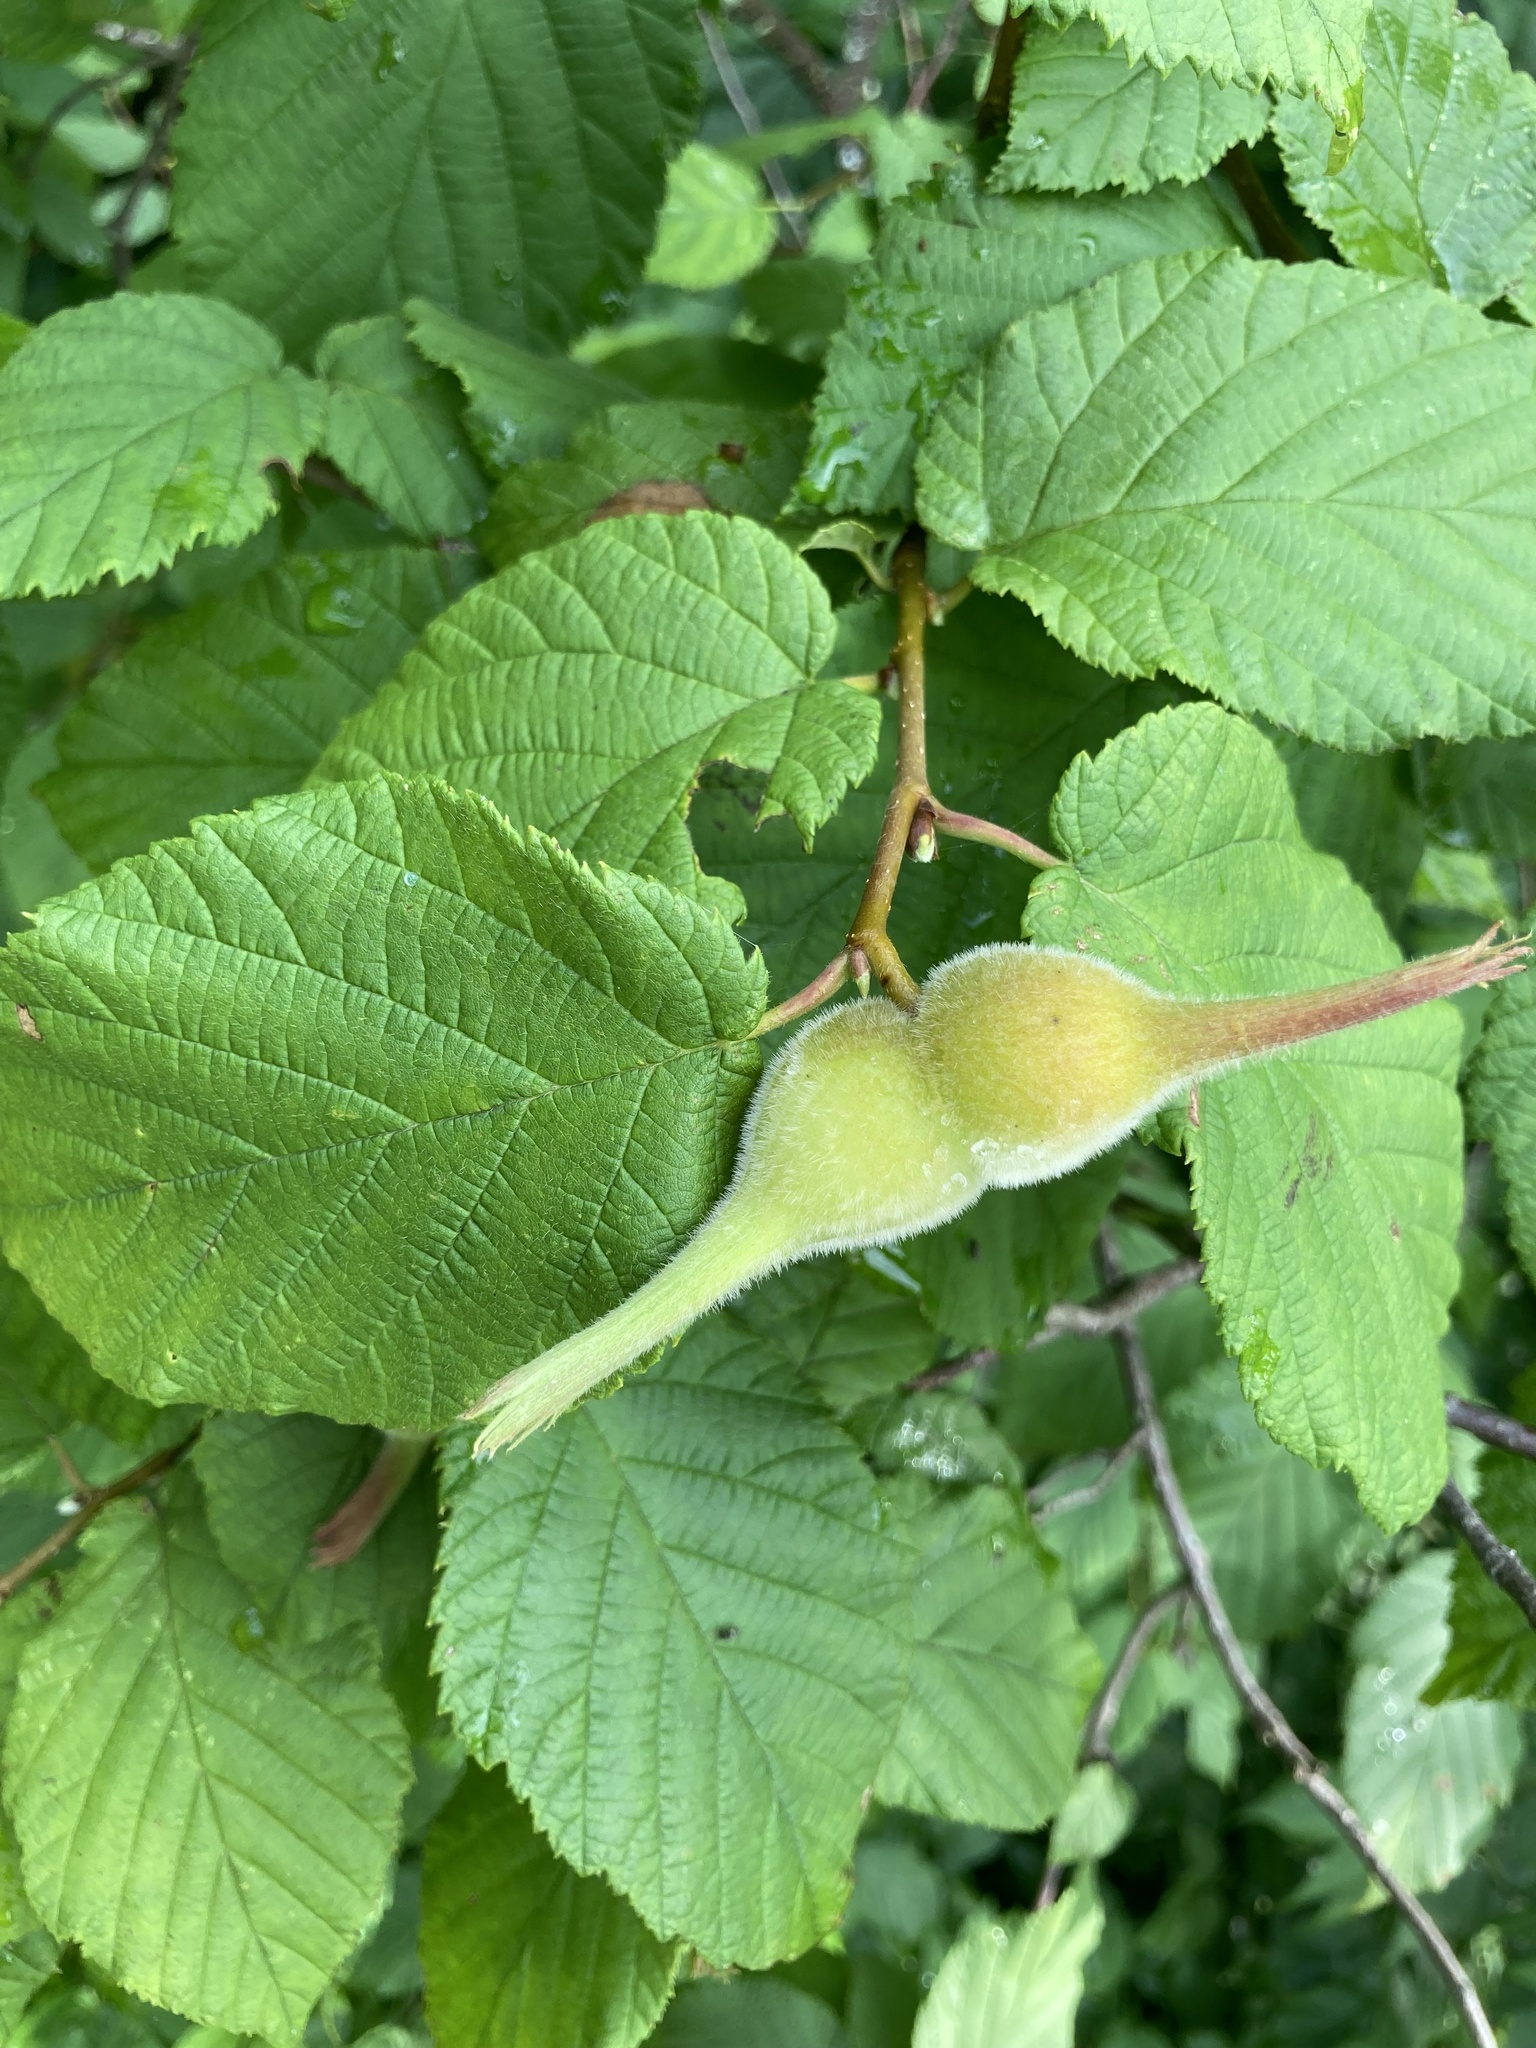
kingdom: Plantae
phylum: Tracheophyta
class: Magnoliopsida
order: Fagales
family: Betulaceae
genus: Corylus
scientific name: Corylus cornuta
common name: Beaked hazel
